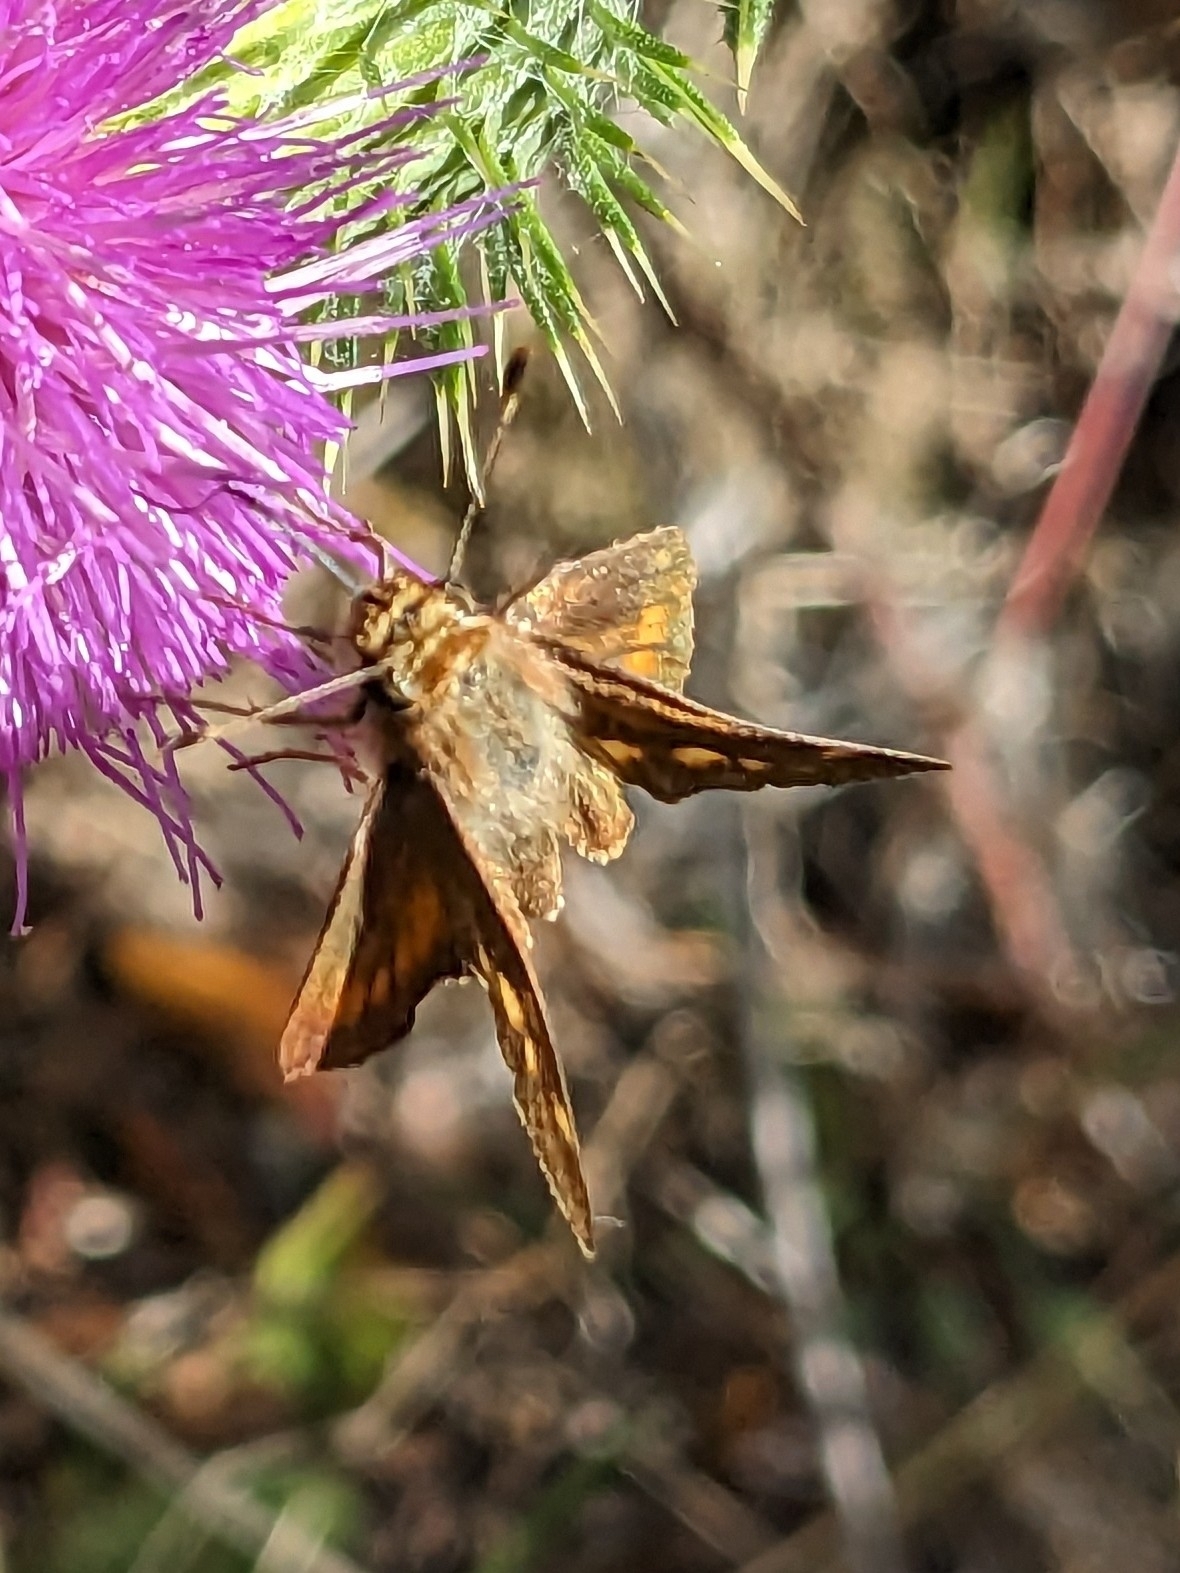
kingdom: Animalia
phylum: Arthropoda
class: Insecta
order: Lepidoptera
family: Hesperiidae
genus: Lon
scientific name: Lon melane
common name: Umber skipper
